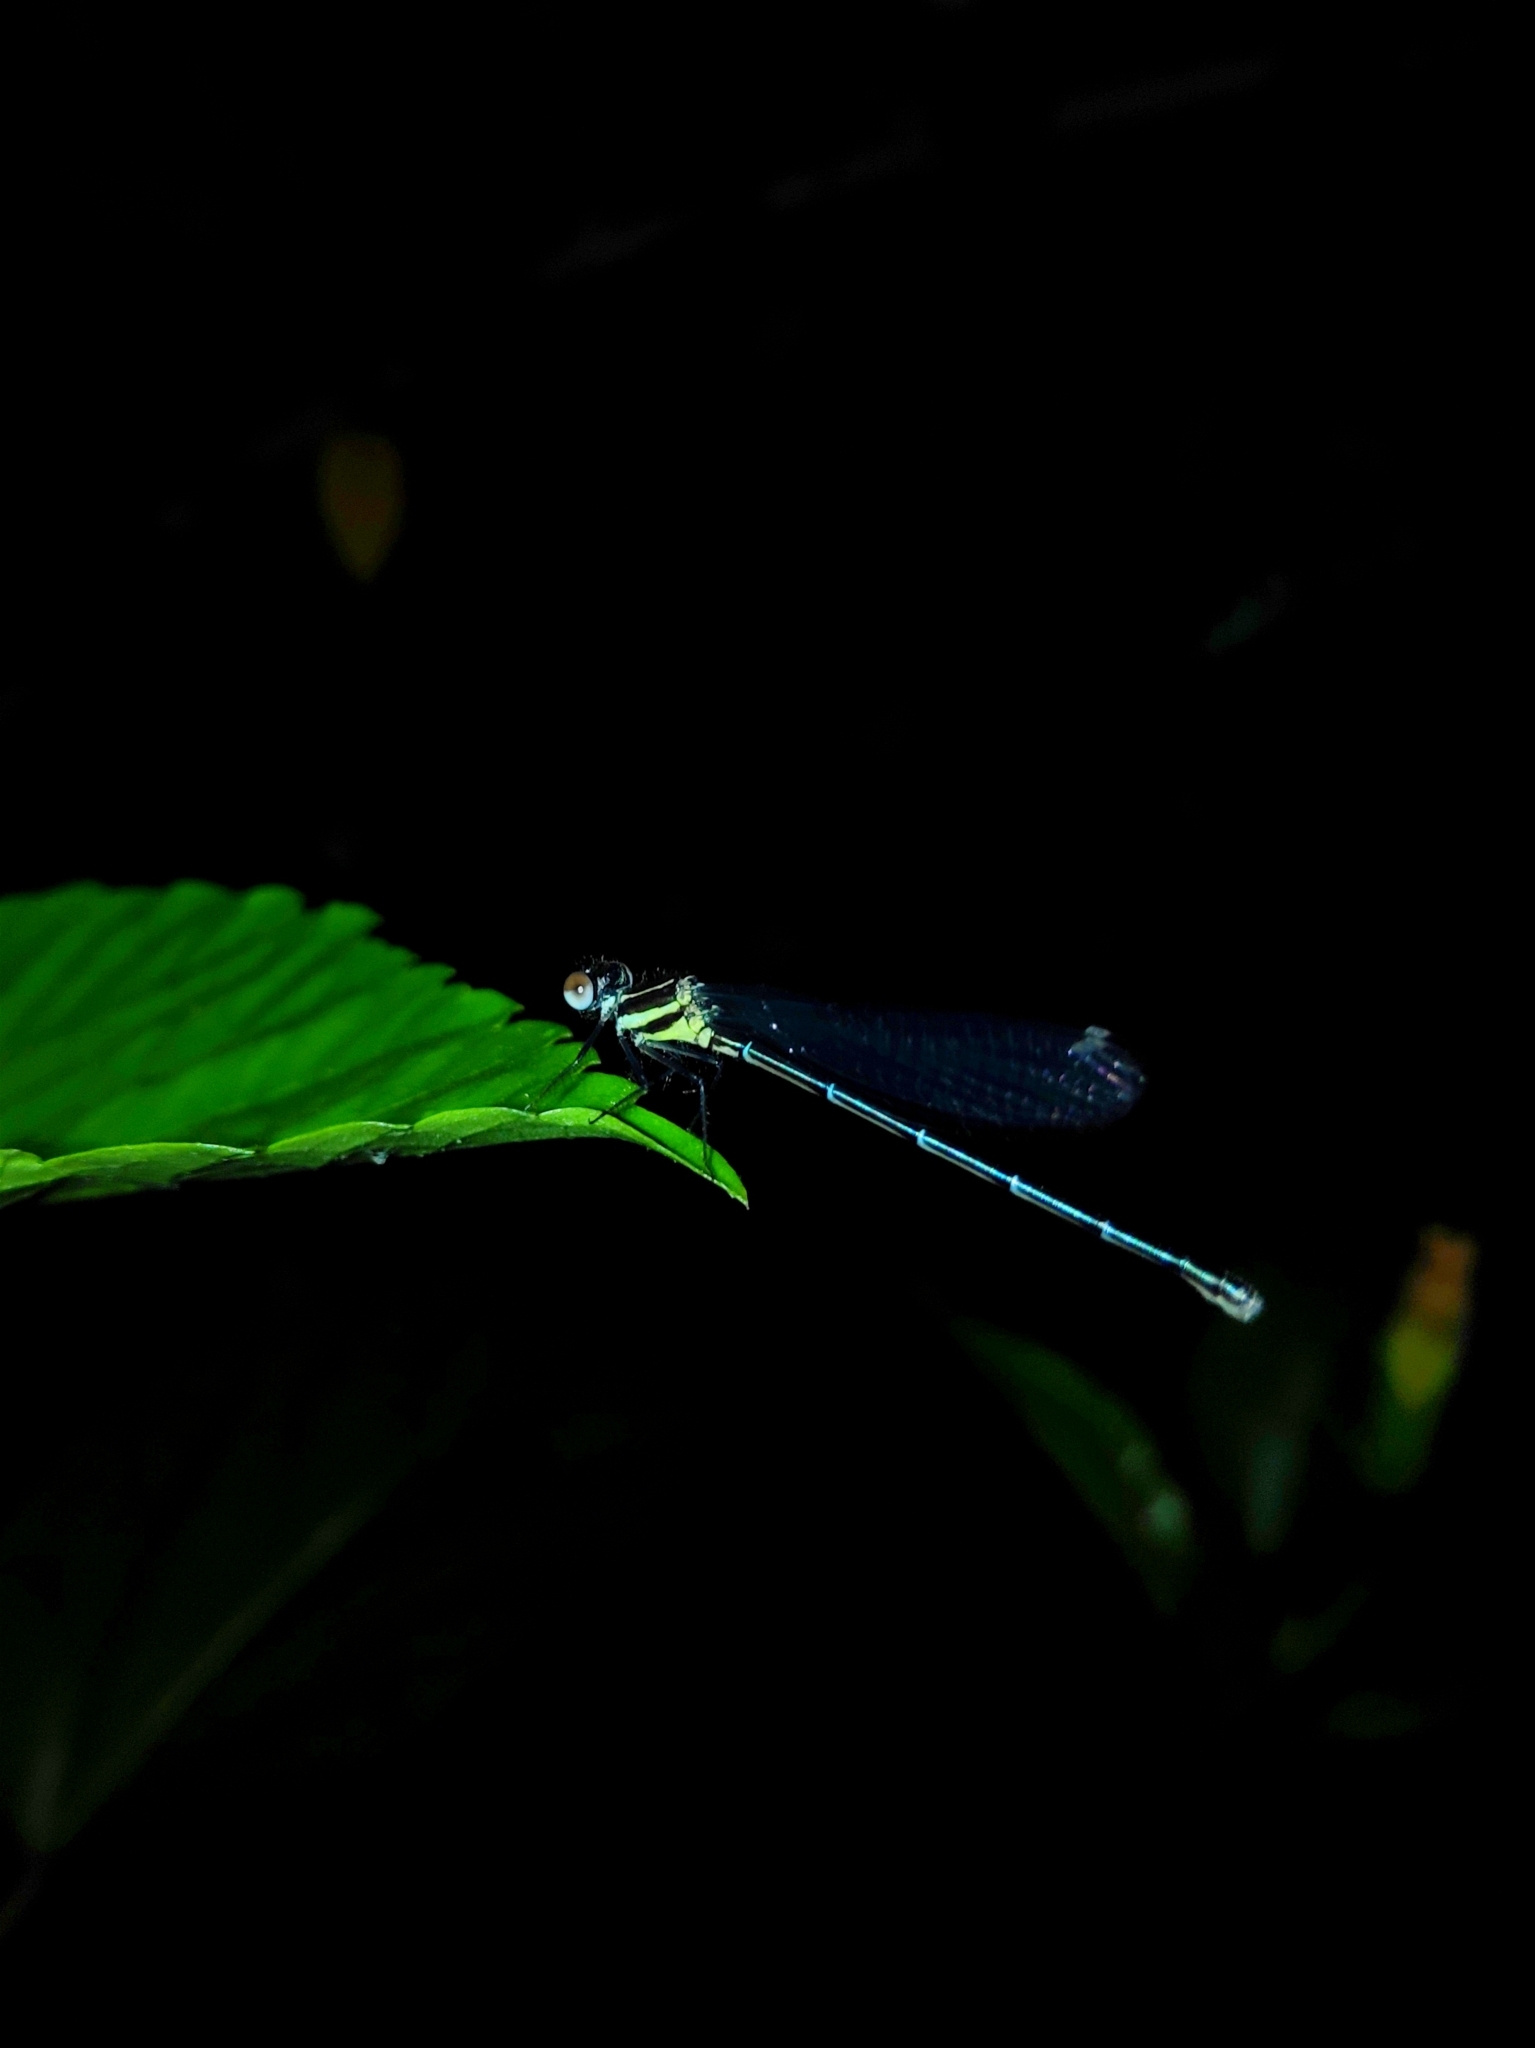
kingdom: Animalia
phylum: Arthropoda
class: Insecta
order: Odonata
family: Platycnemididae
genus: Onychargia
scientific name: Onychargia atrocyana
